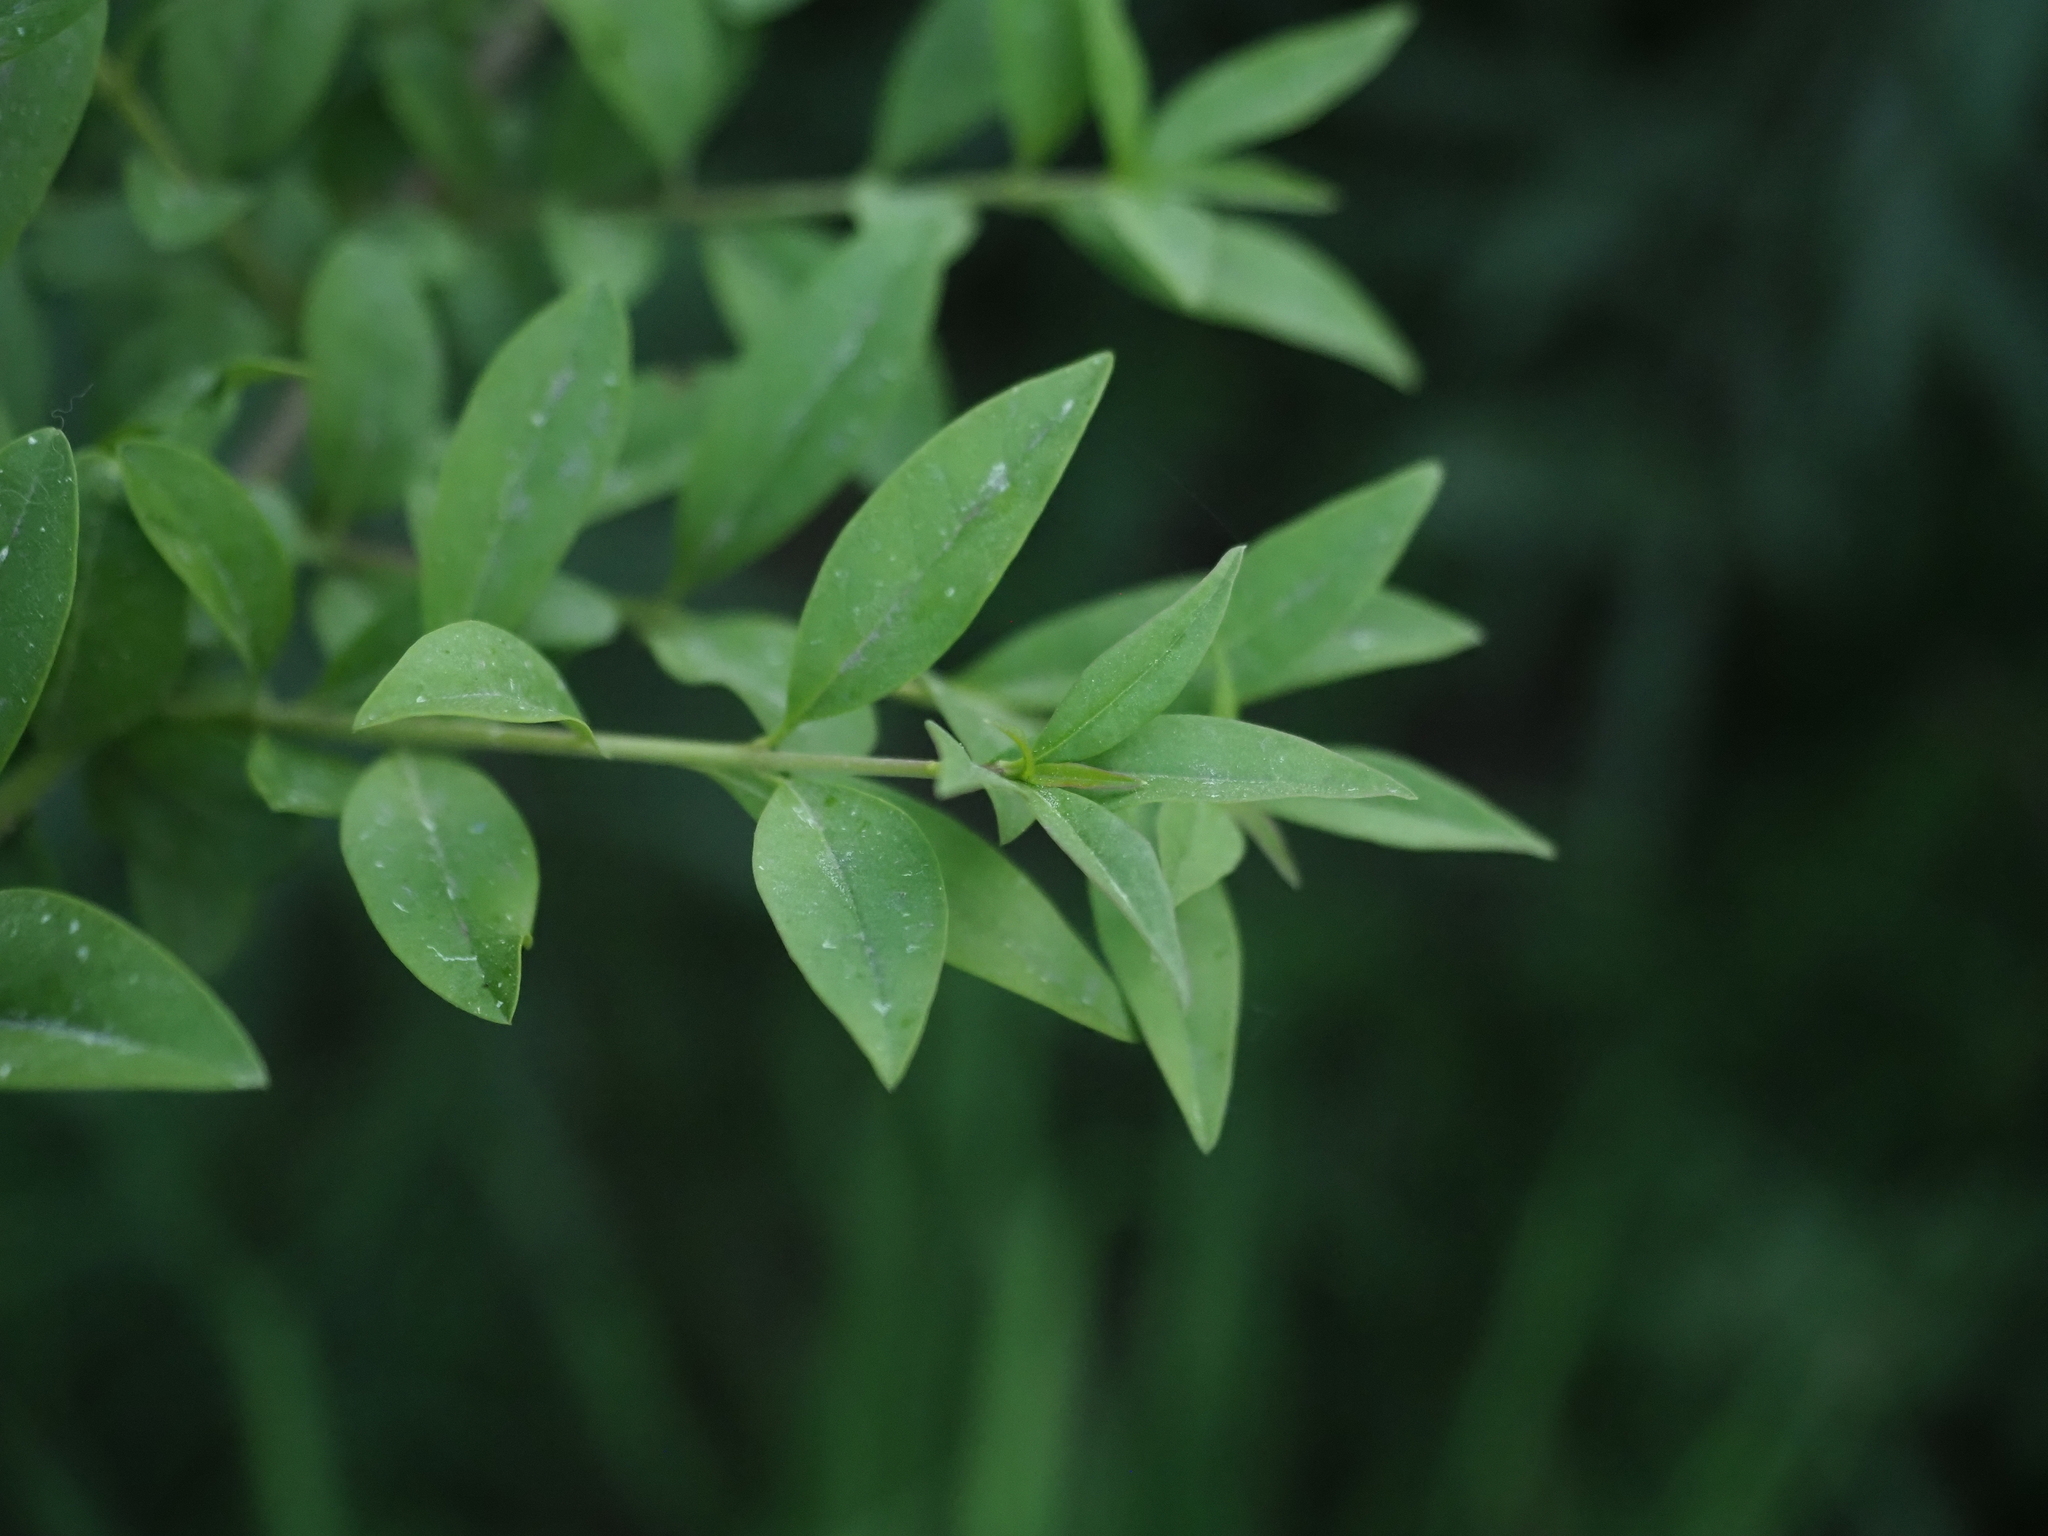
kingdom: Plantae
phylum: Tracheophyta
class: Magnoliopsida
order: Lamiales
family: Oleaceae
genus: Ligustrum
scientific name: Ligustrum vulgare
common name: Wild privet
